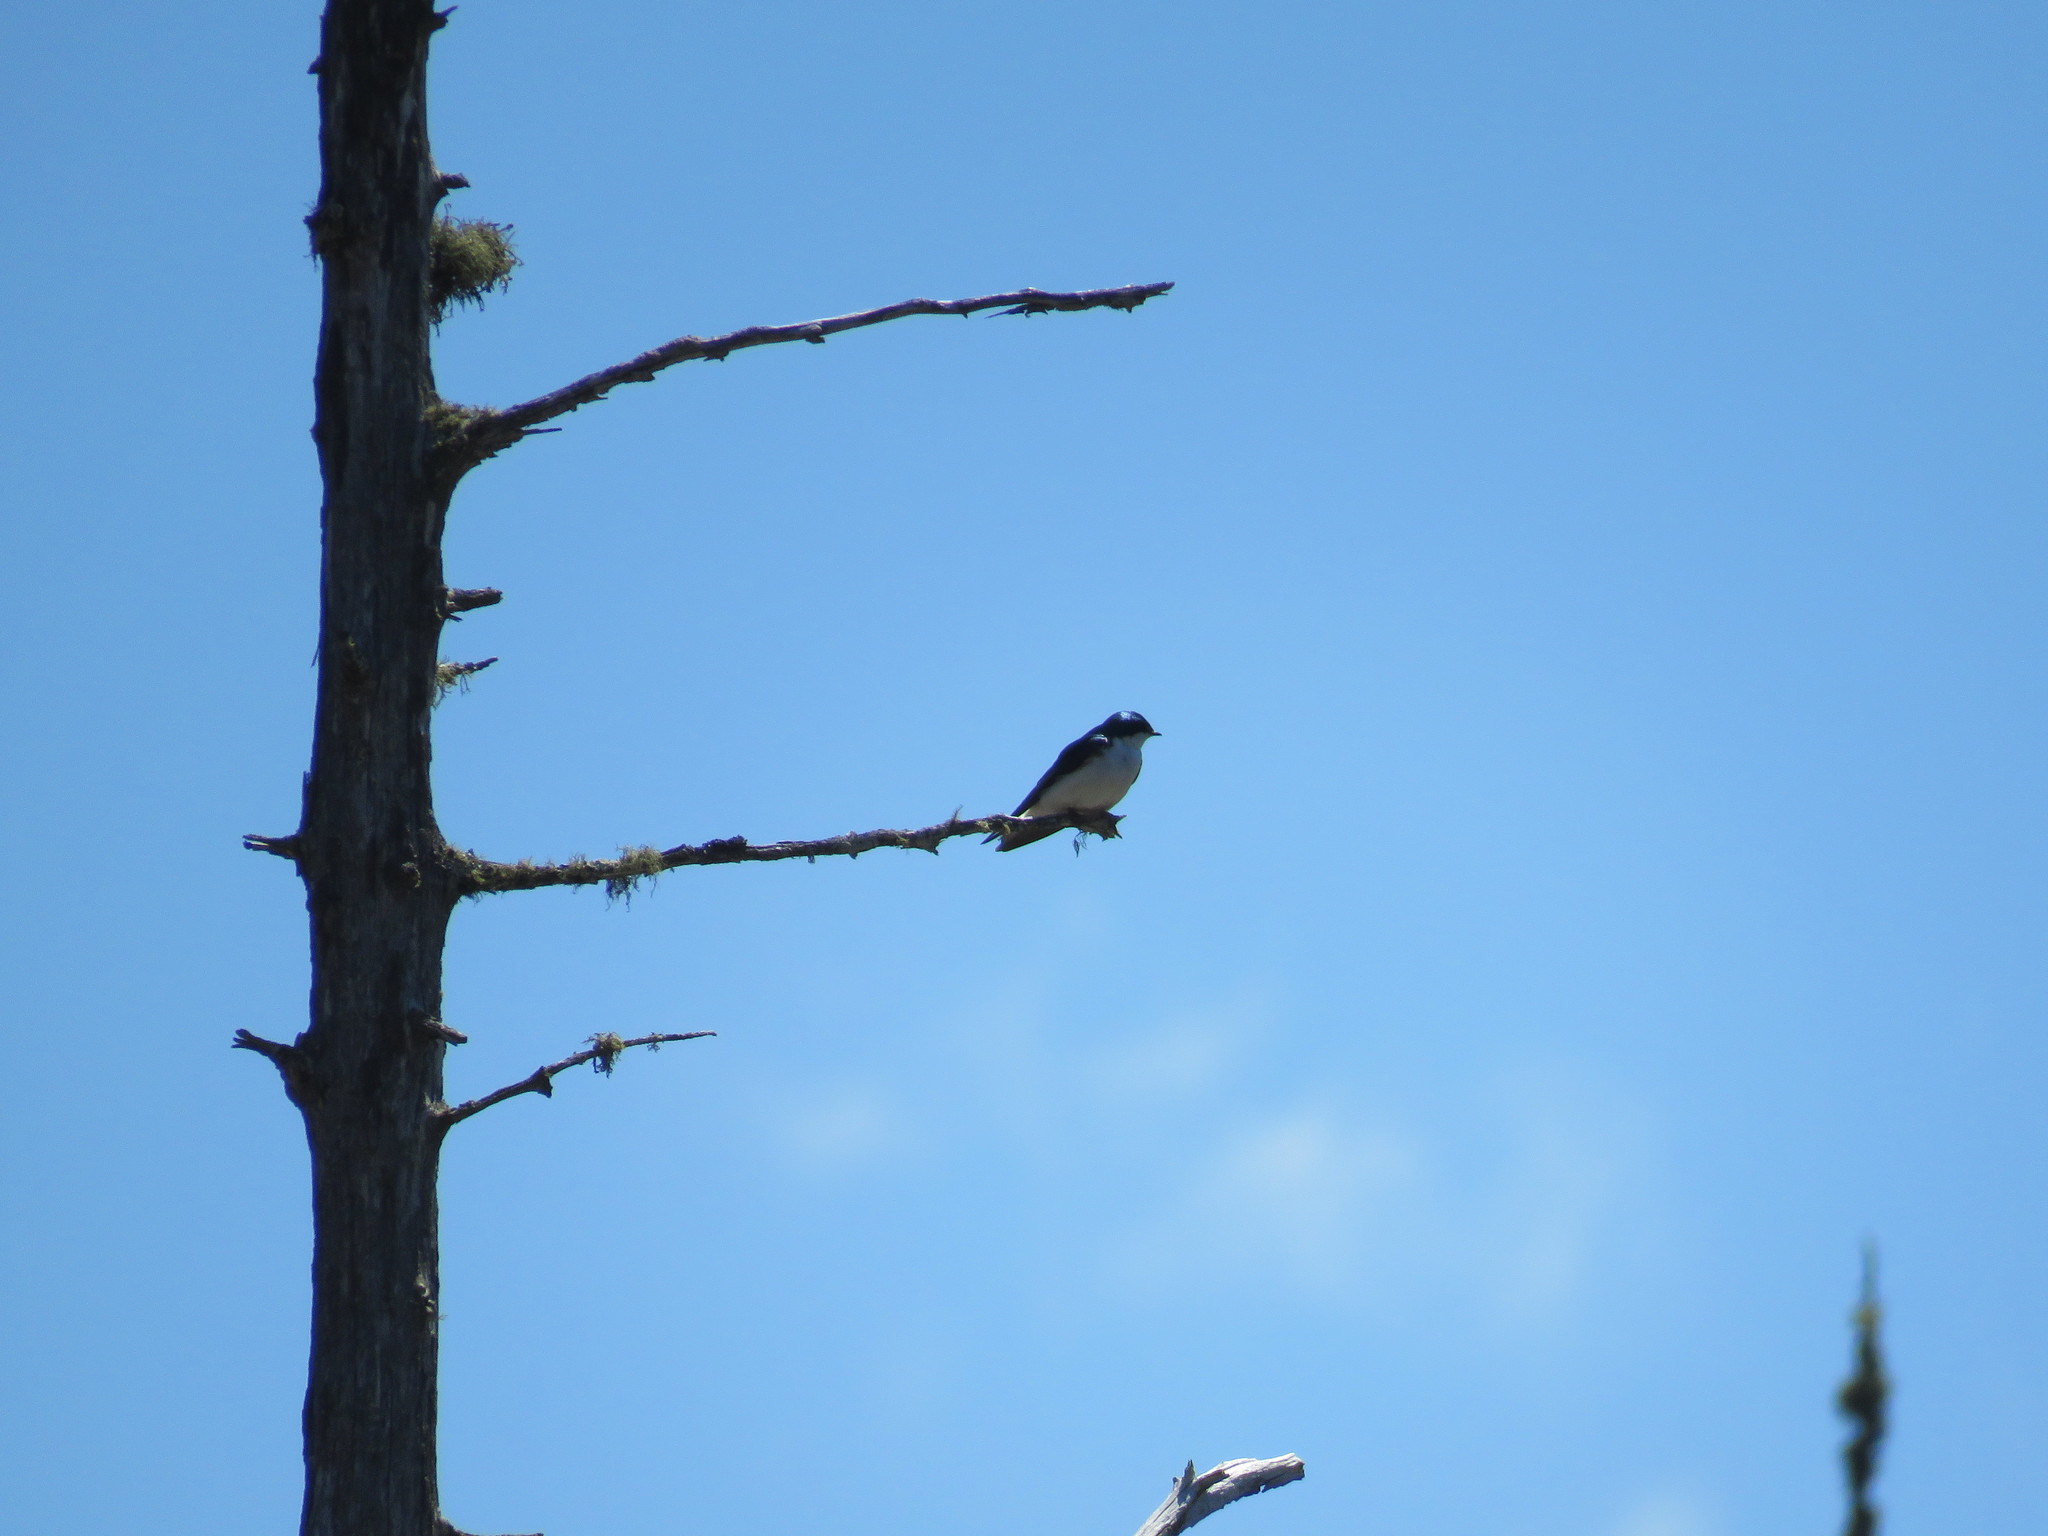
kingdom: Animalia
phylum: Chordata
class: Aves
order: Passeriformes
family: Hirundinidae
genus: Tachycineta
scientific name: Tachycineta bicolor
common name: Tree swallow
